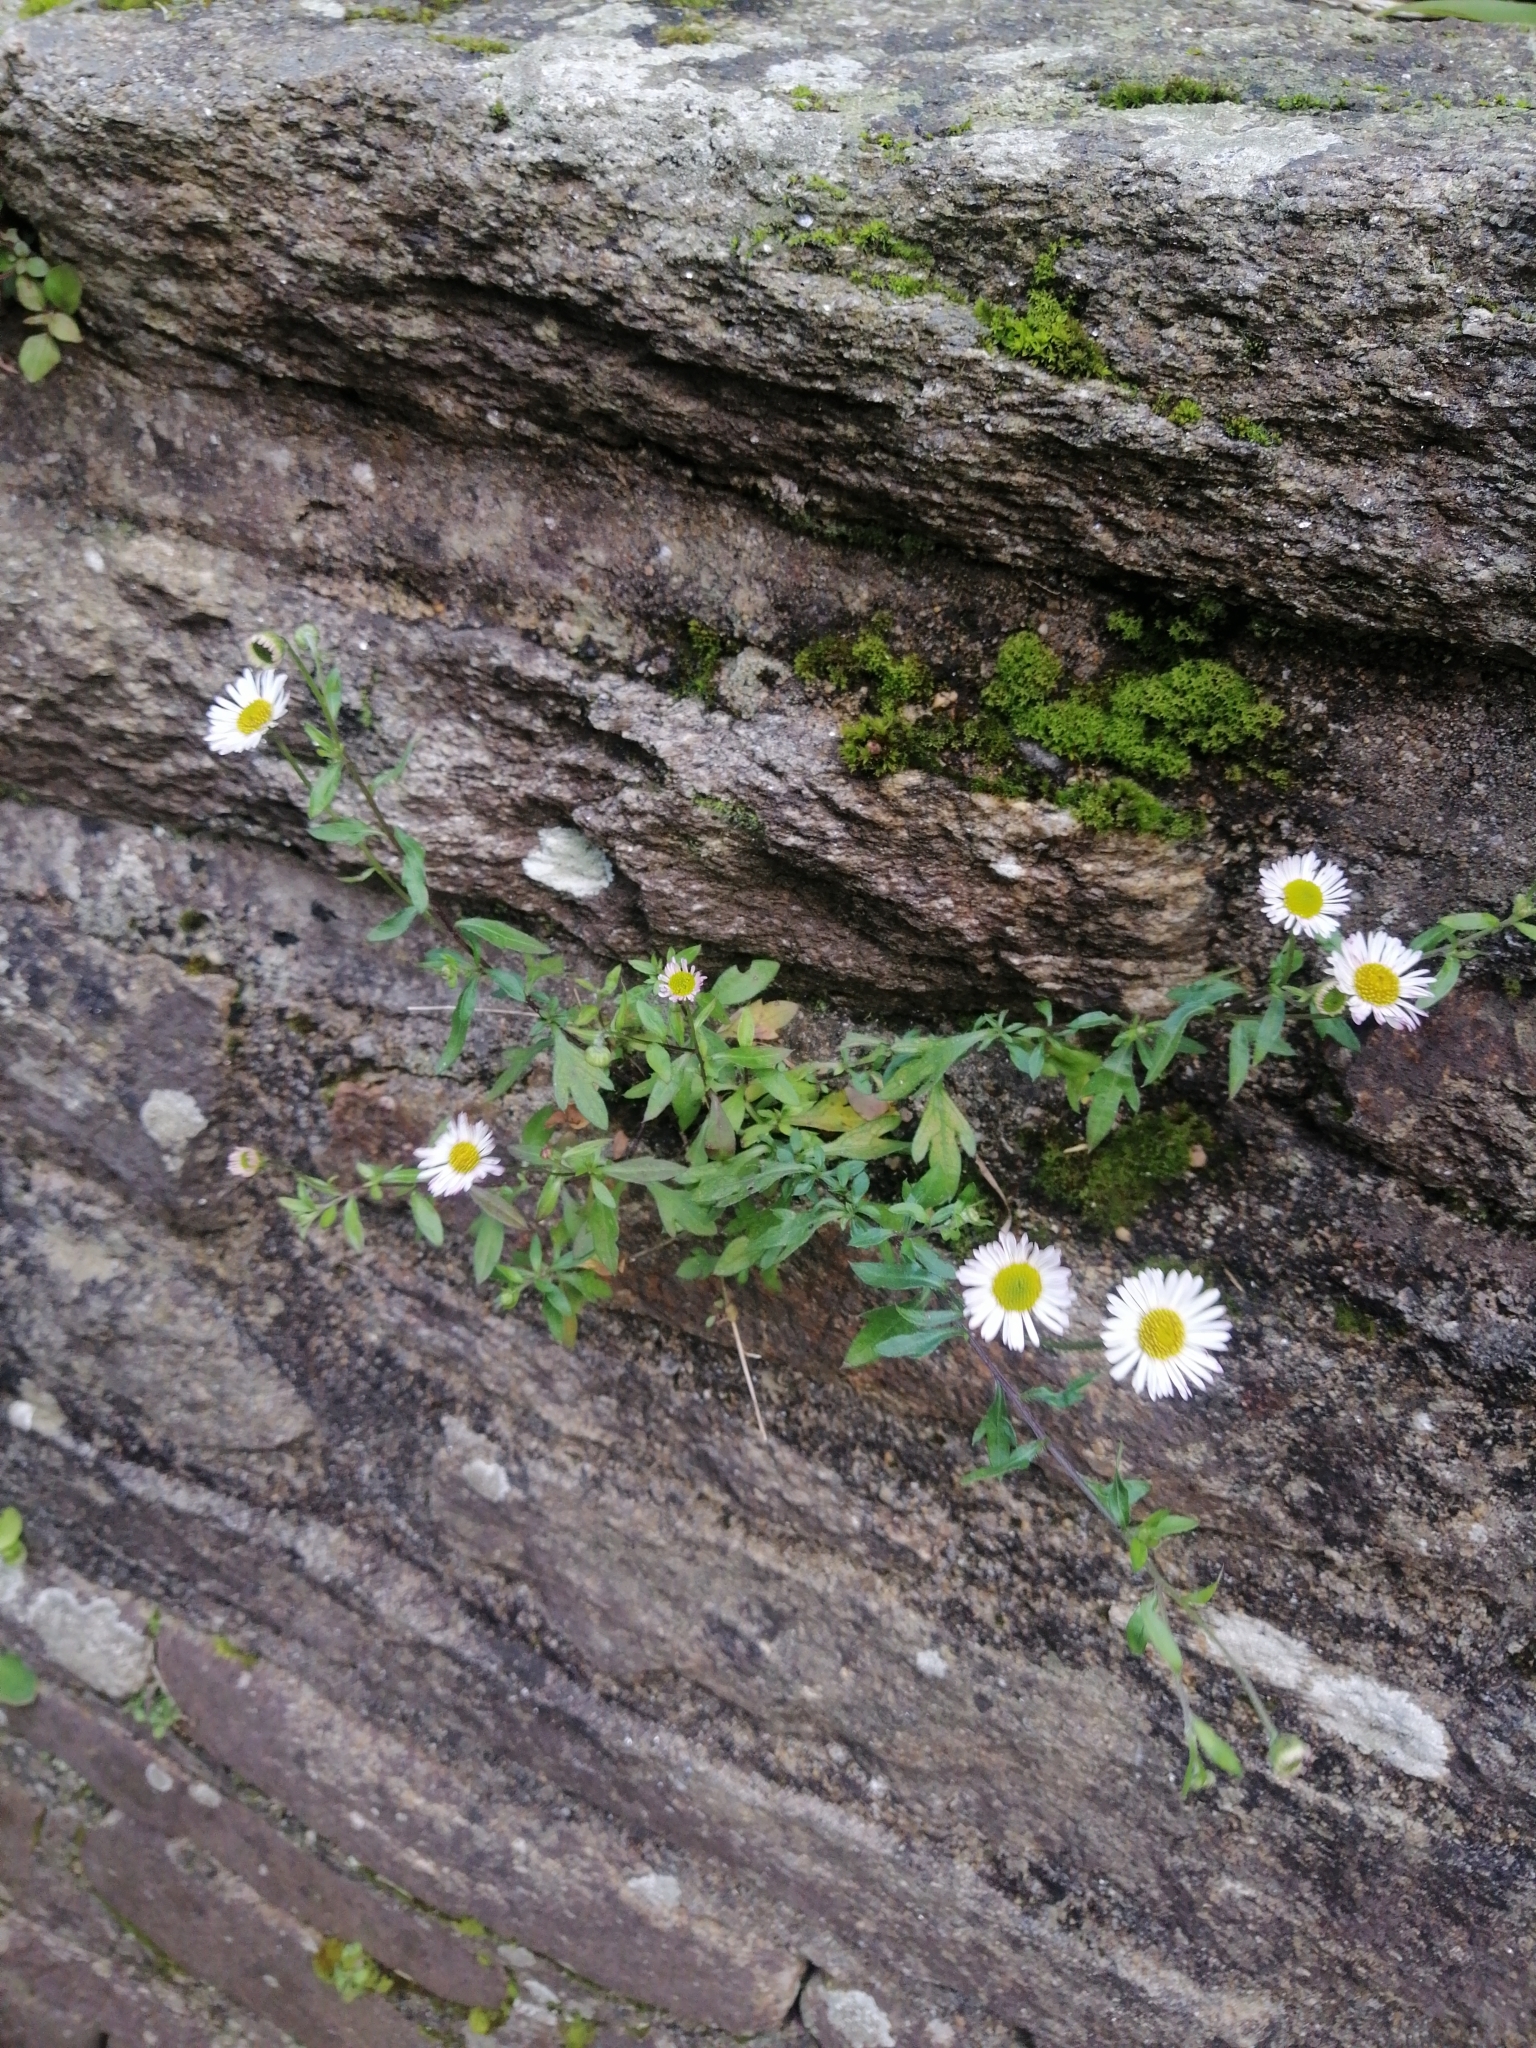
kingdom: Plantae
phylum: Tracheophyta
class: Magnoliopsida
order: Asterales
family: Asteraceae
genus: Erigeron
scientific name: Erigeron karvinskianus
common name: Mexican fleabane
